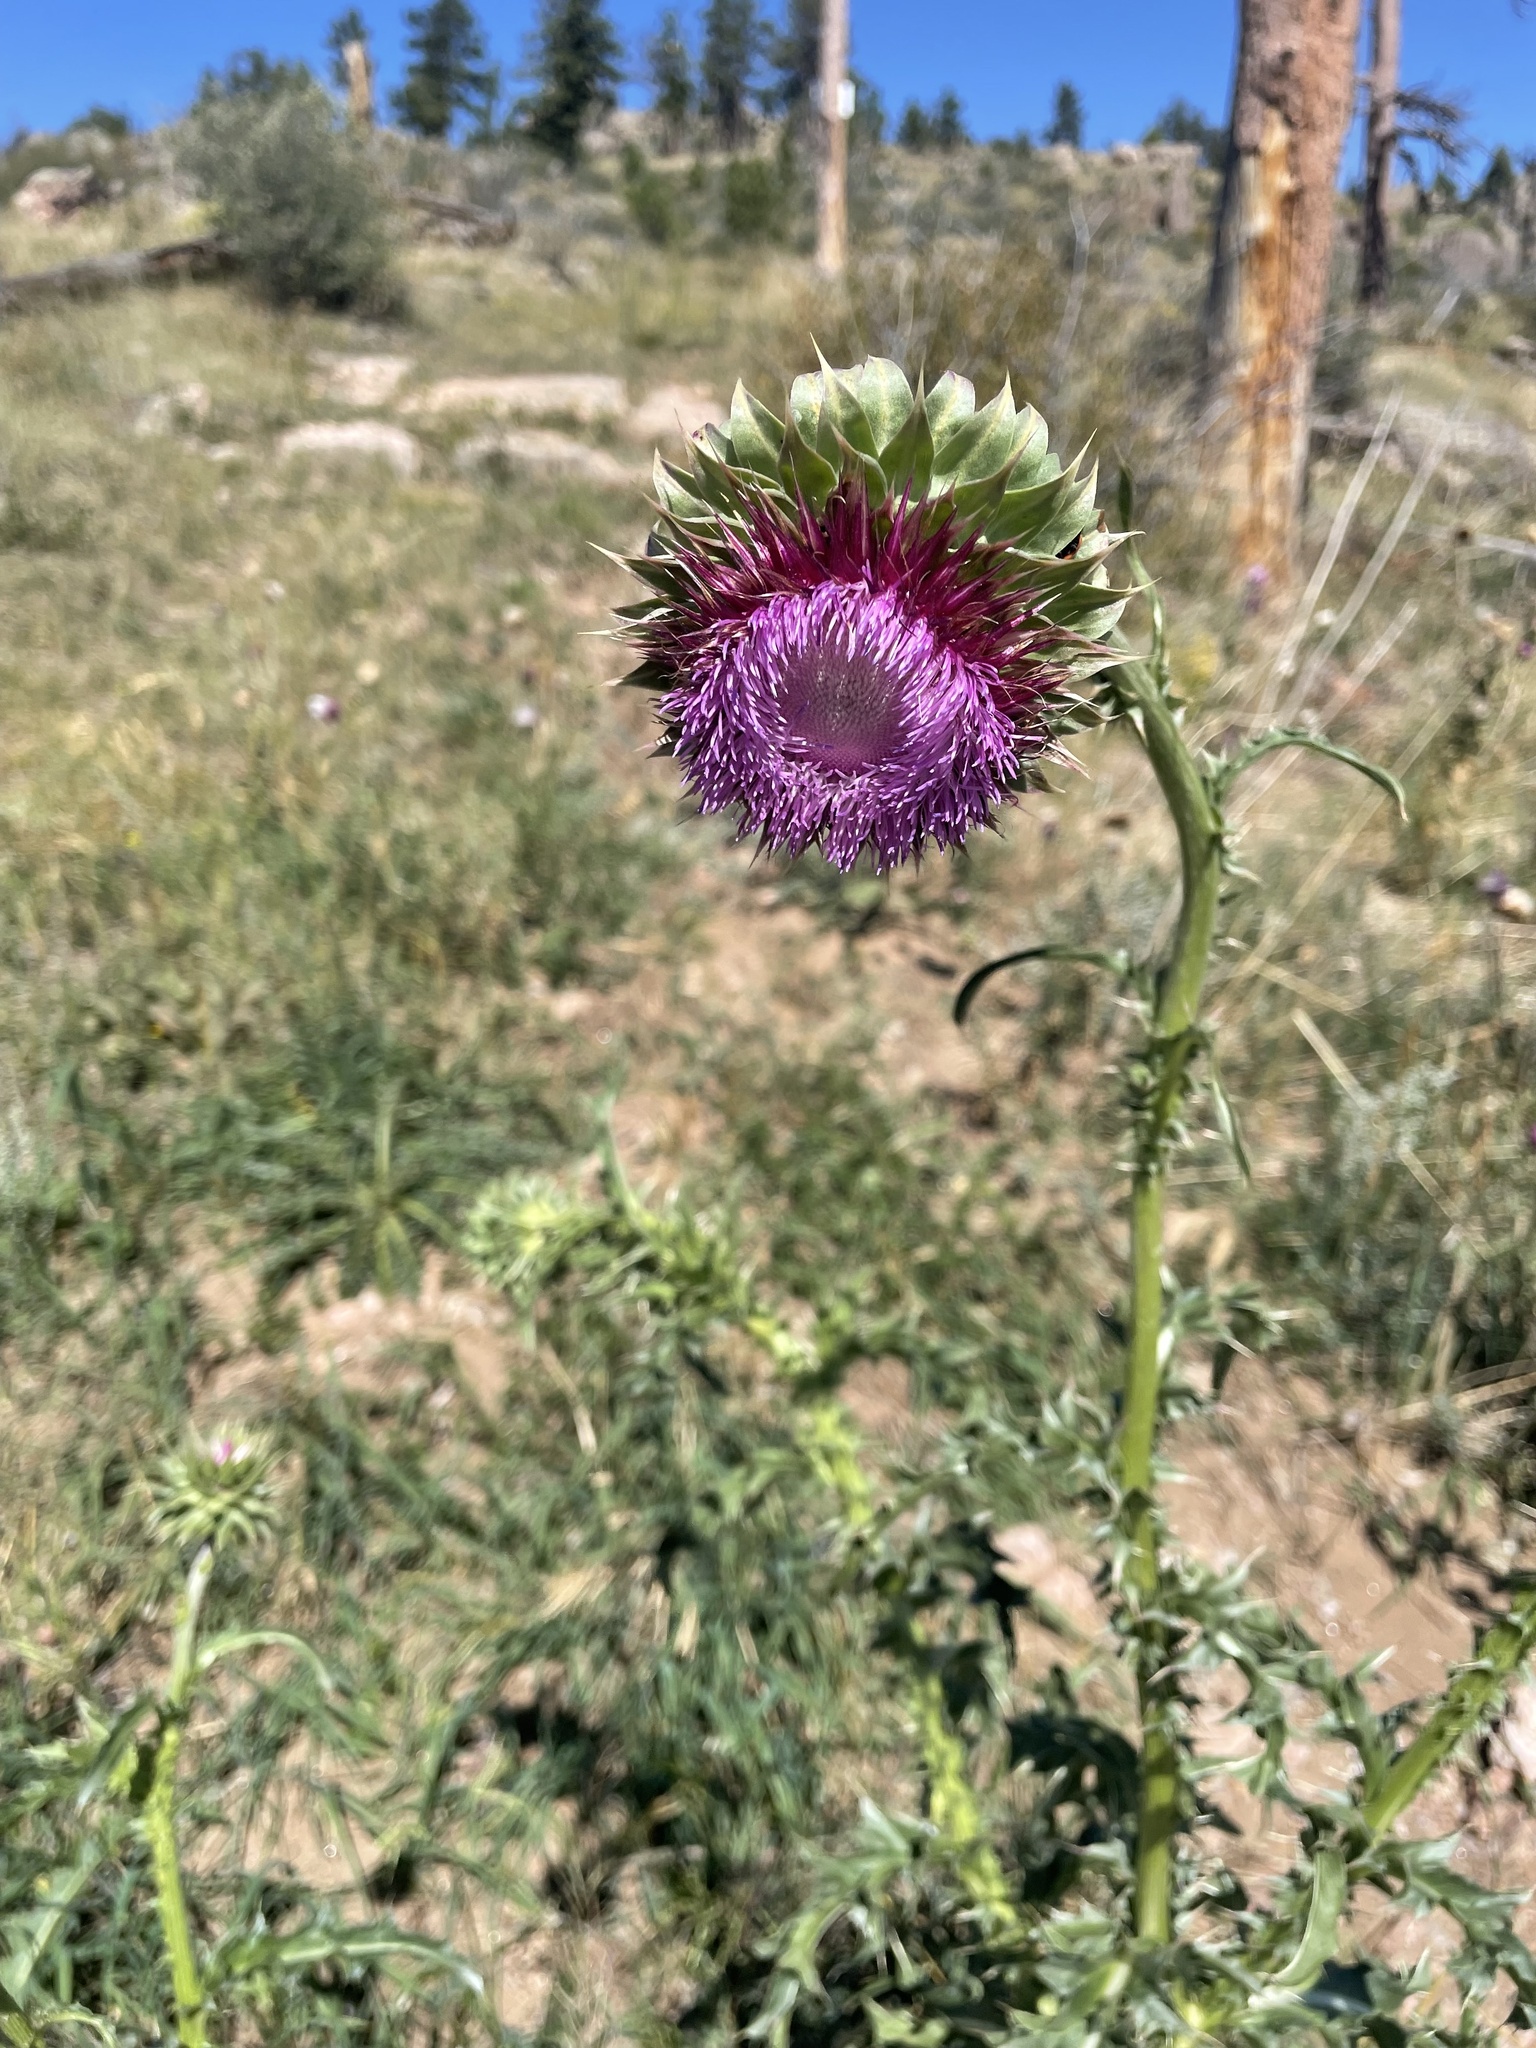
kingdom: Plantae
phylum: Tracheophyta
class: Magnoliopsida
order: Asterales
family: Asteraceae
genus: Carduus
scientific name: Carduus nutans
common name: Musk thistle
